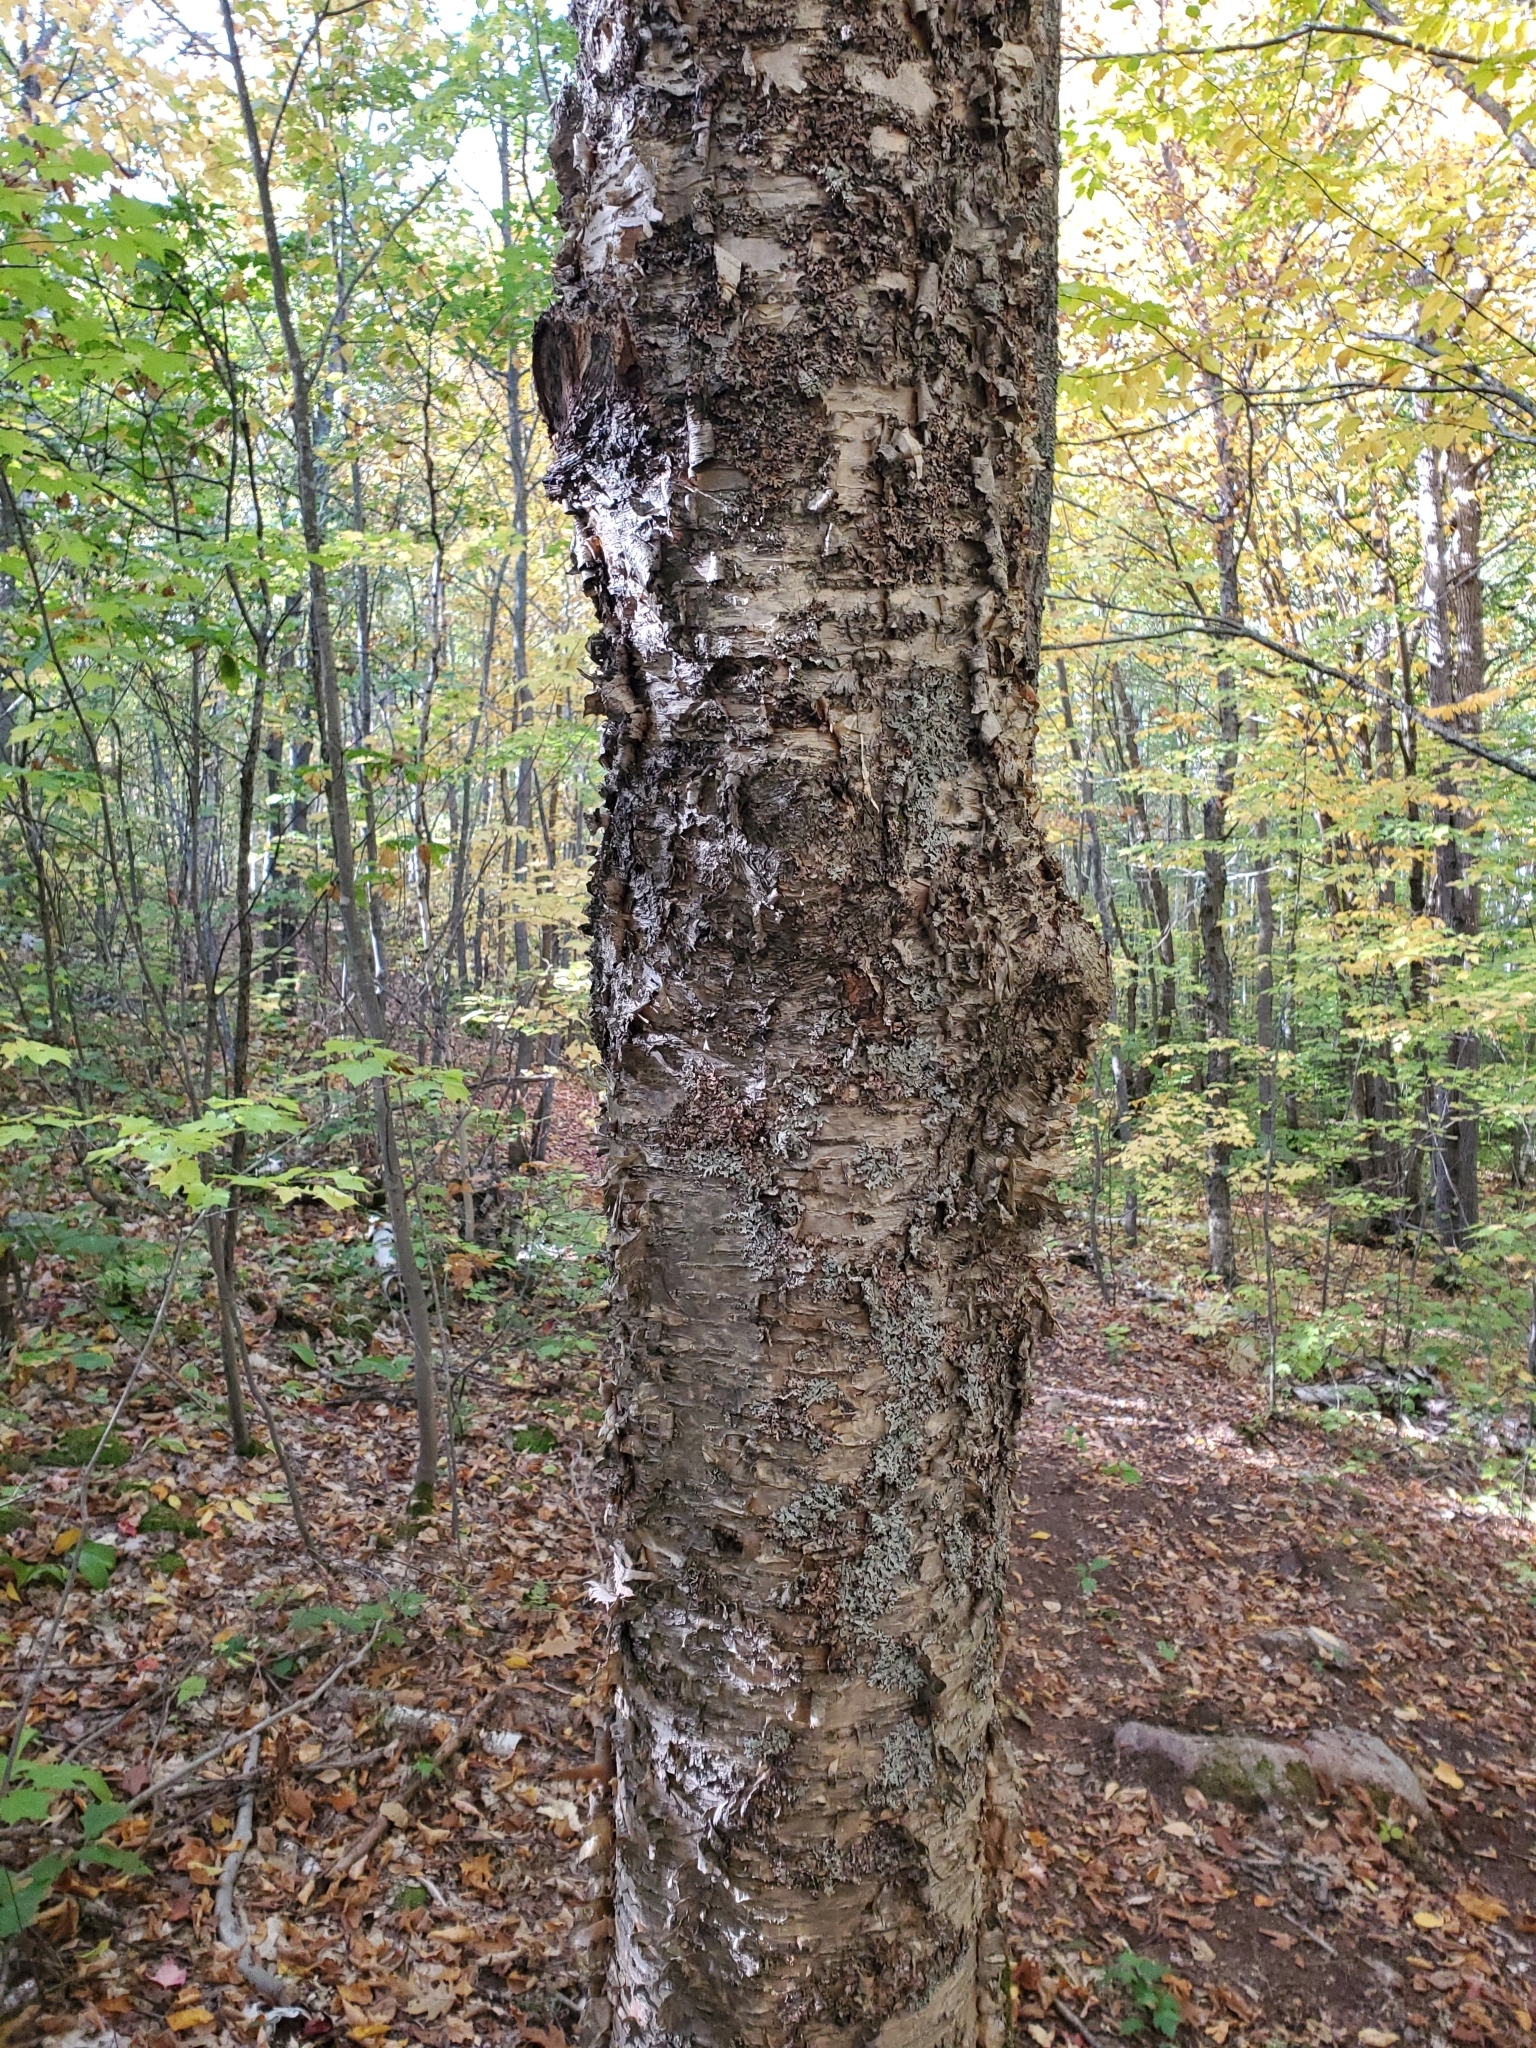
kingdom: Plantae
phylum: Tracheophyta
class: Magnoliopsida
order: Fagales
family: Betulaceae
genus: Betula
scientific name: Betula alleghaniensis
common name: Yellow birch
